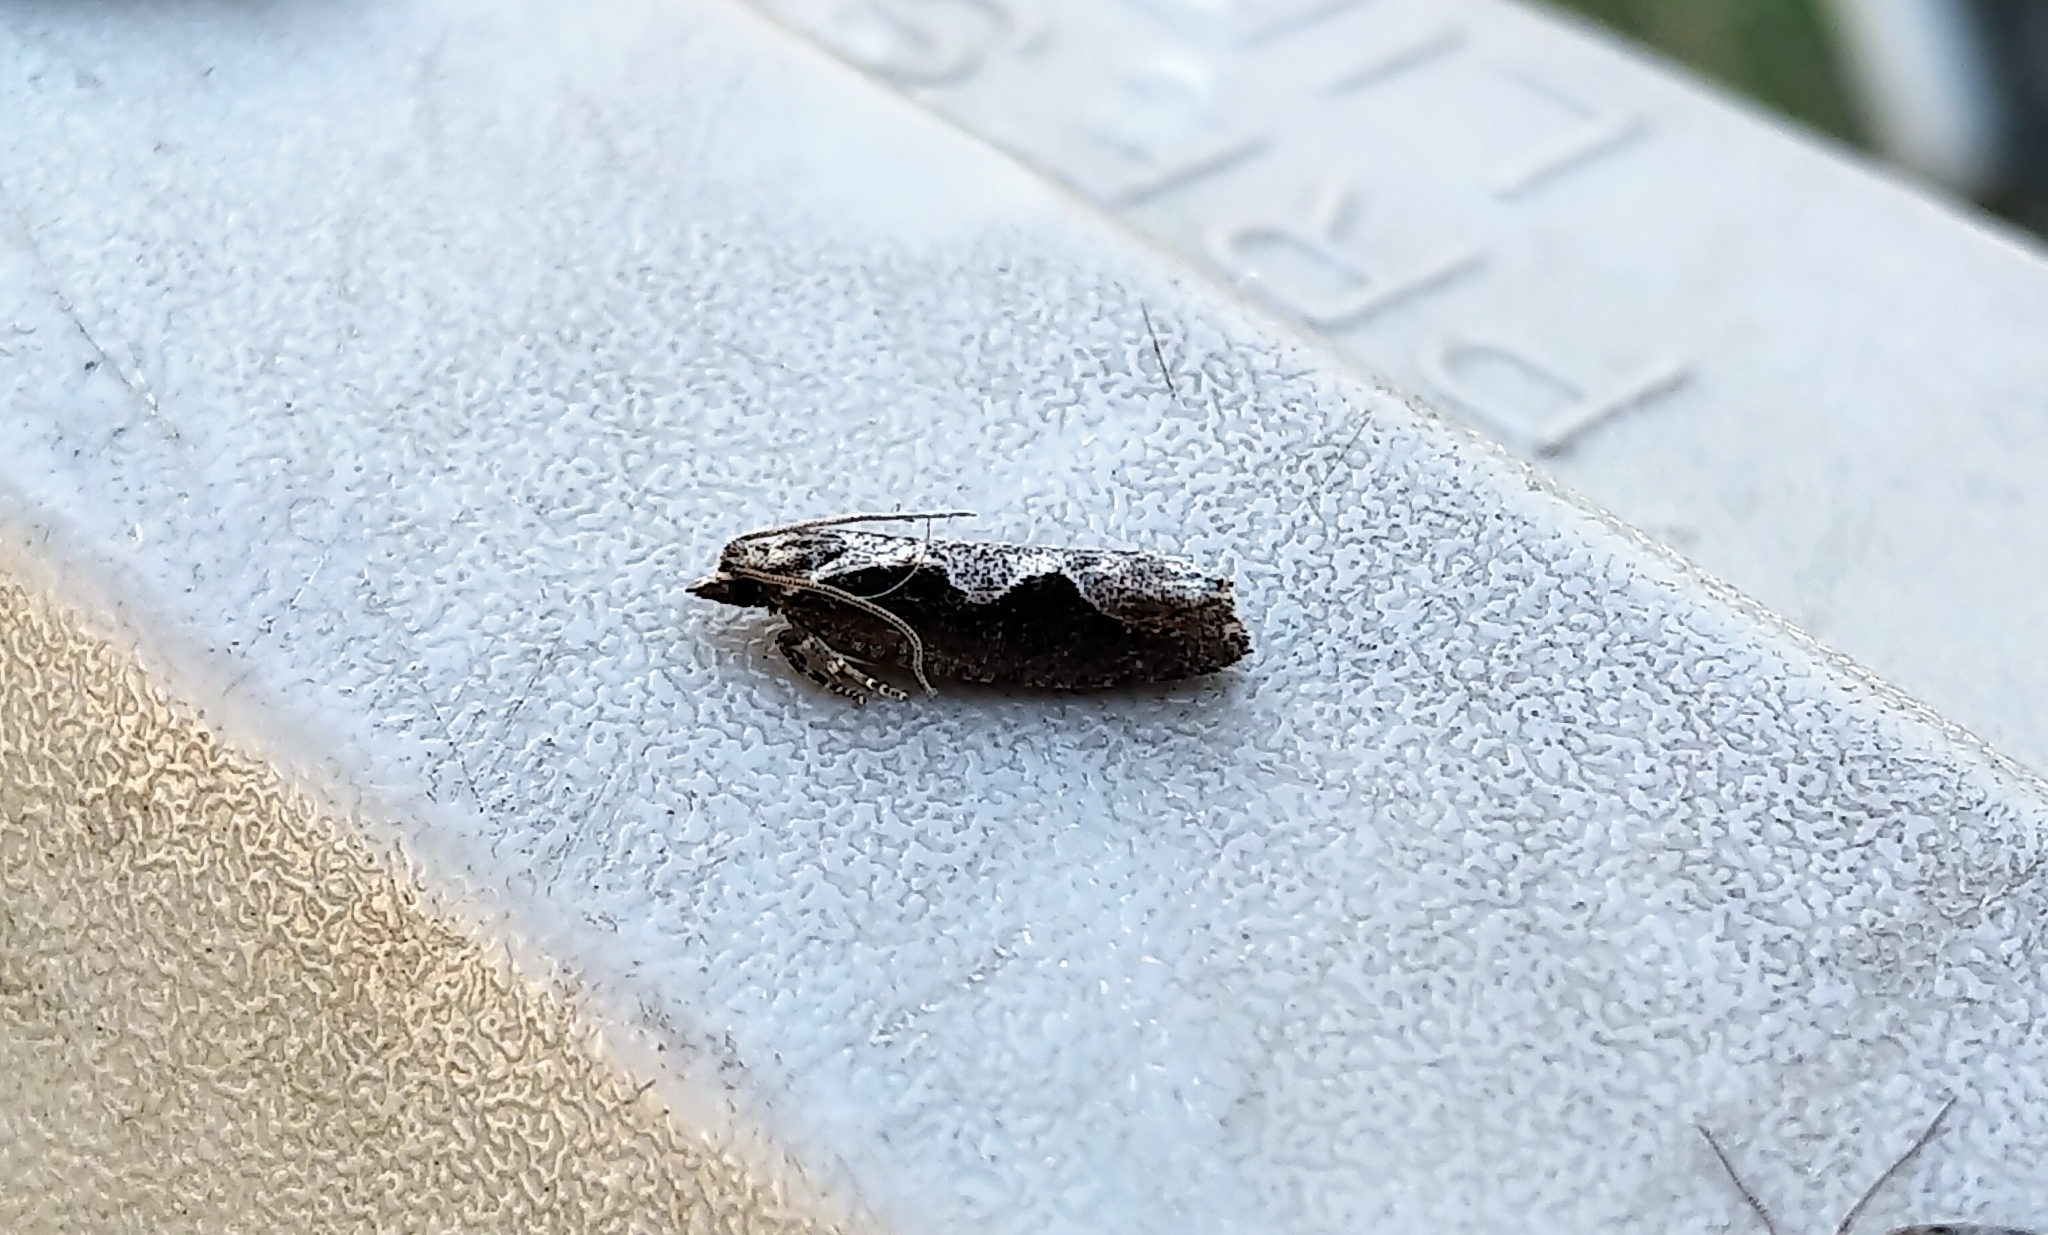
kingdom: Animalia
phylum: Arthropoda
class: Insecta
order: Lepidoptera
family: Tortricidae
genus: Epinotia
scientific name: Epinotia lindana
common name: Diamondback epinotia moth
